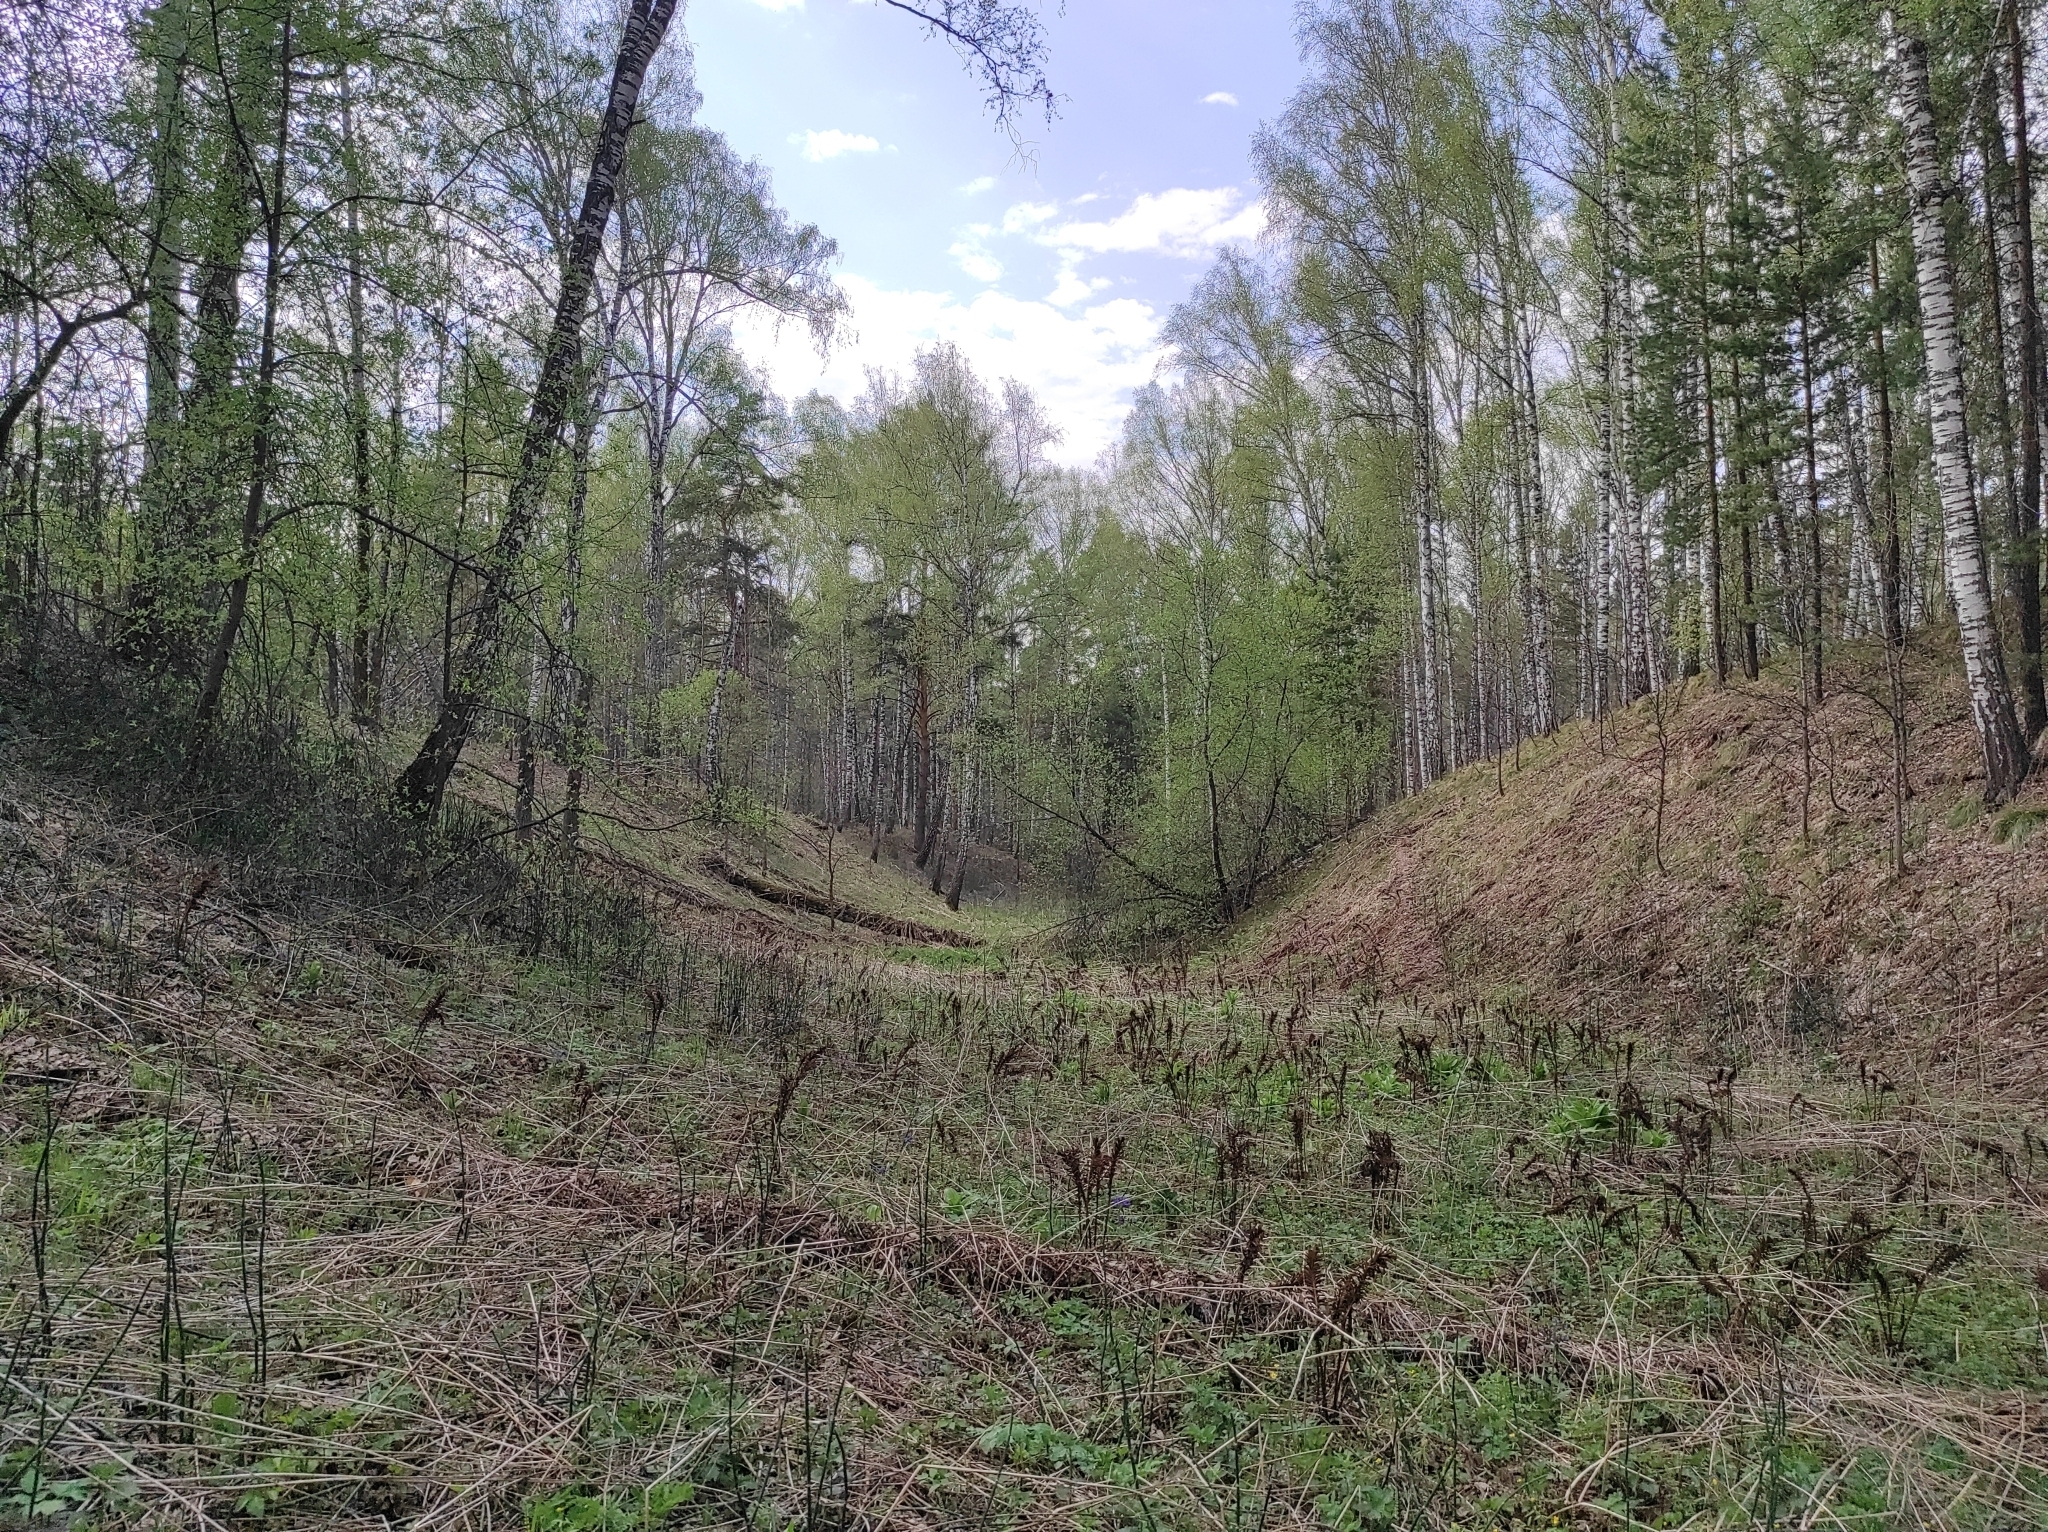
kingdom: Plantae
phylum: Tracheophyta
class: Pinopsida
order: Pinales
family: Pinaceae
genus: Pinus
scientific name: Pinus sylvestris
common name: Scots pine
